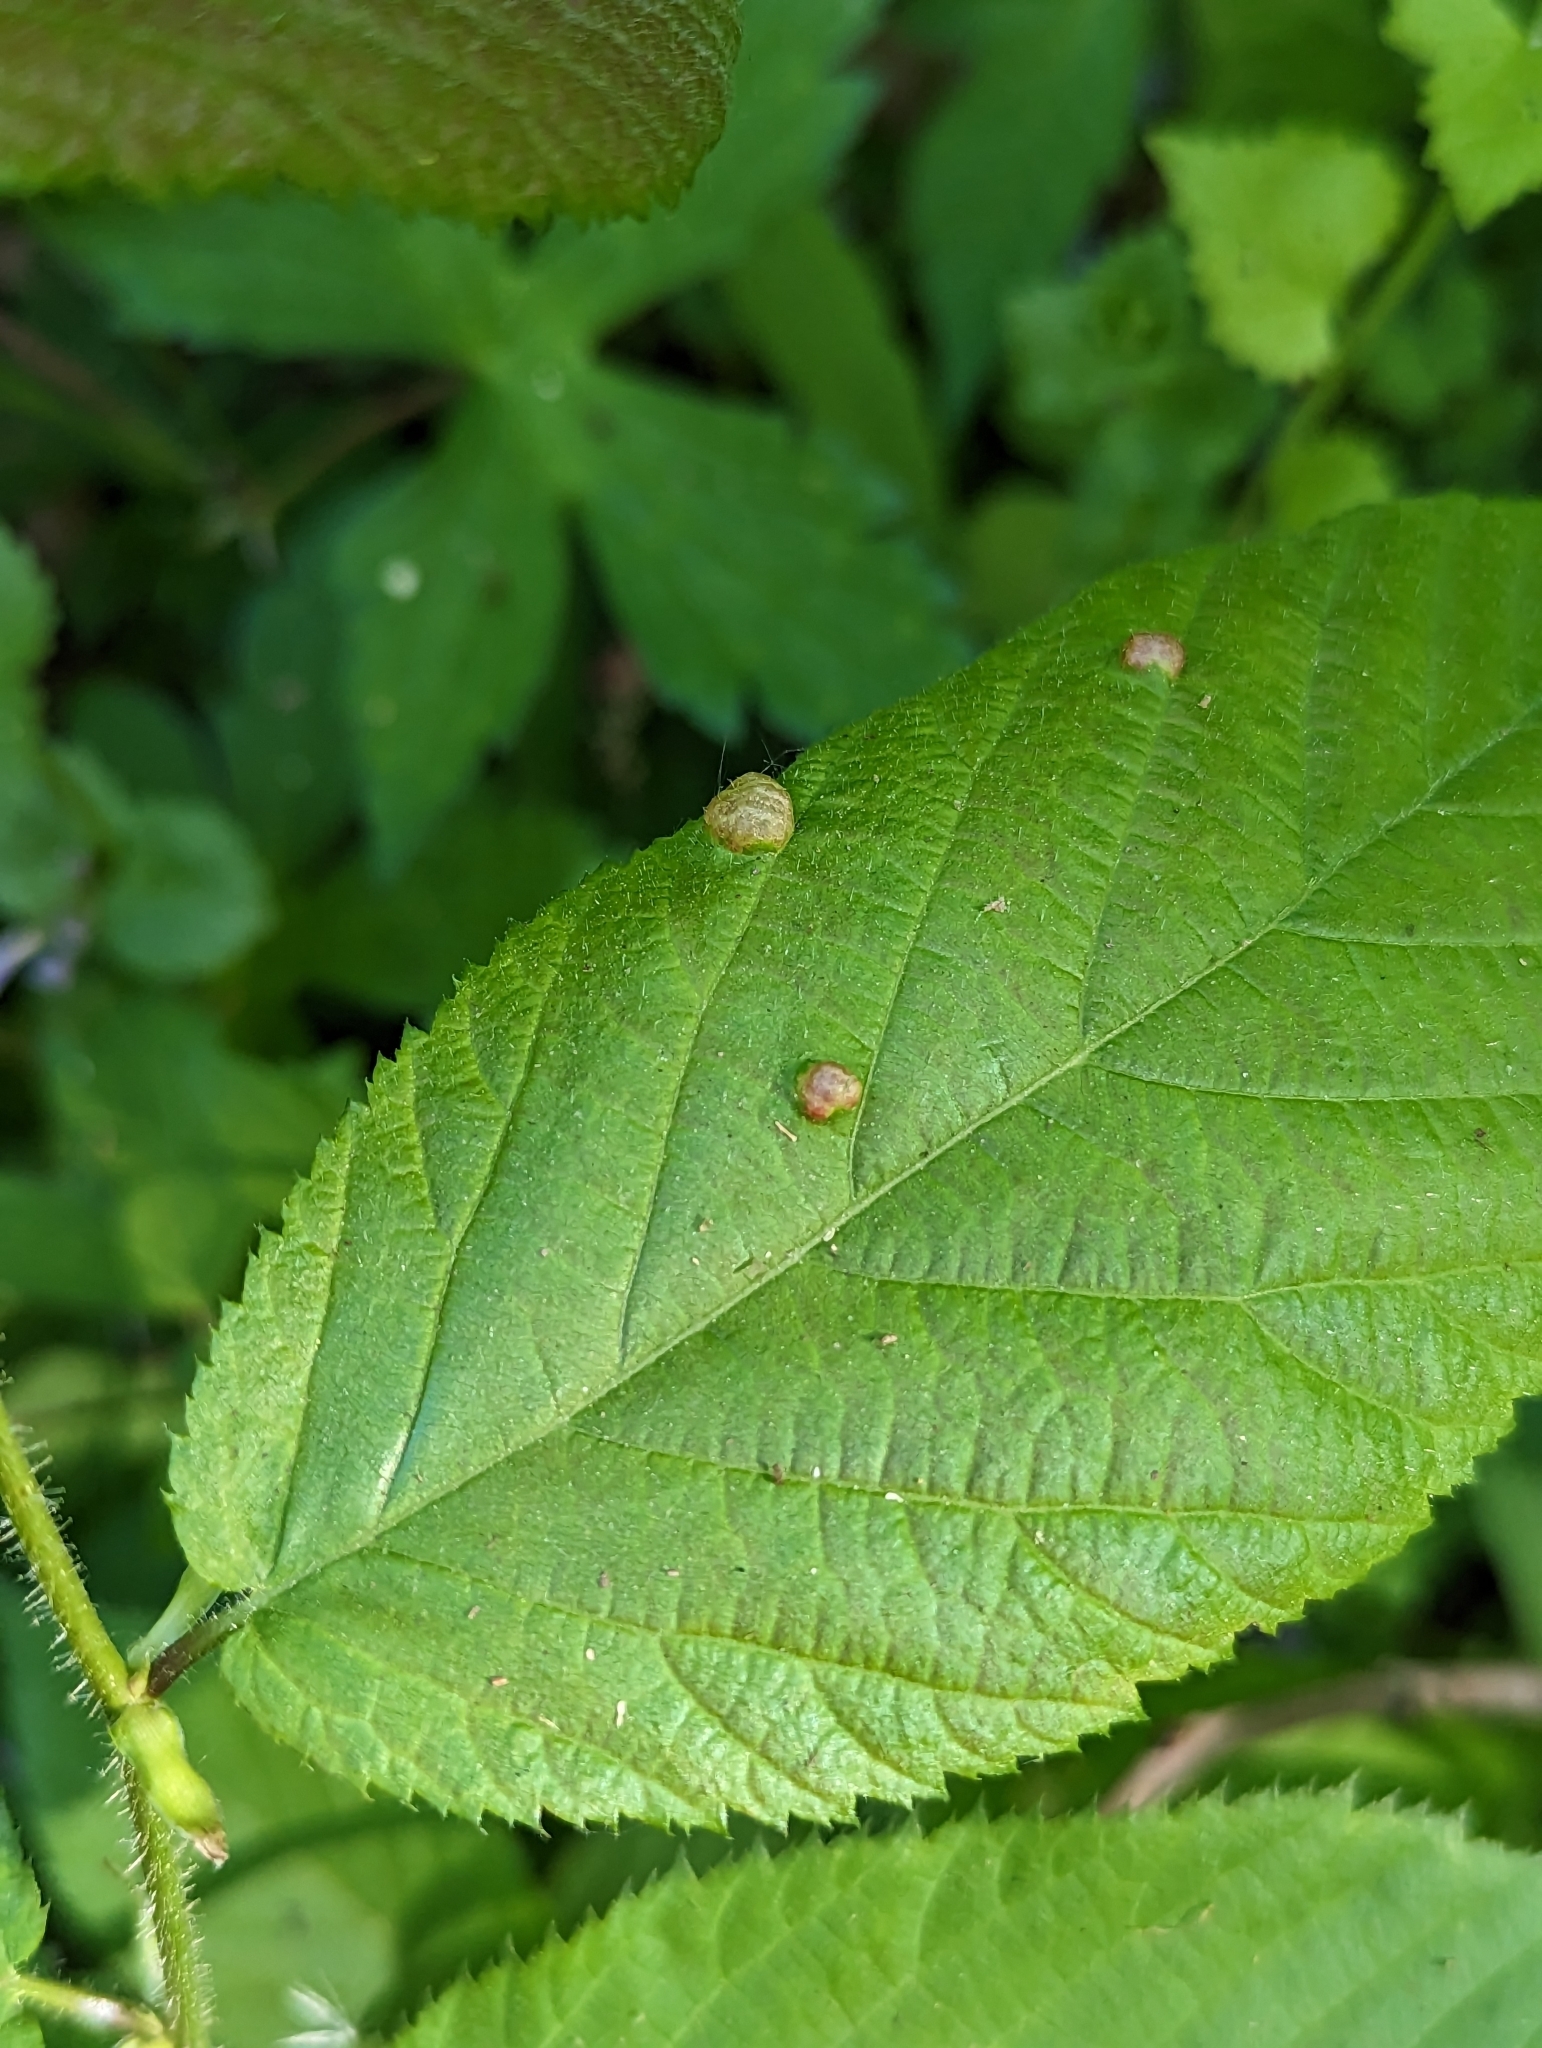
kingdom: Plantae
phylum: Tracheophyta
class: Magnoliopsida
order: Fagales
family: Betulaceae
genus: Ostrya
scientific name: Ostrya virginiana
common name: Ironwood
